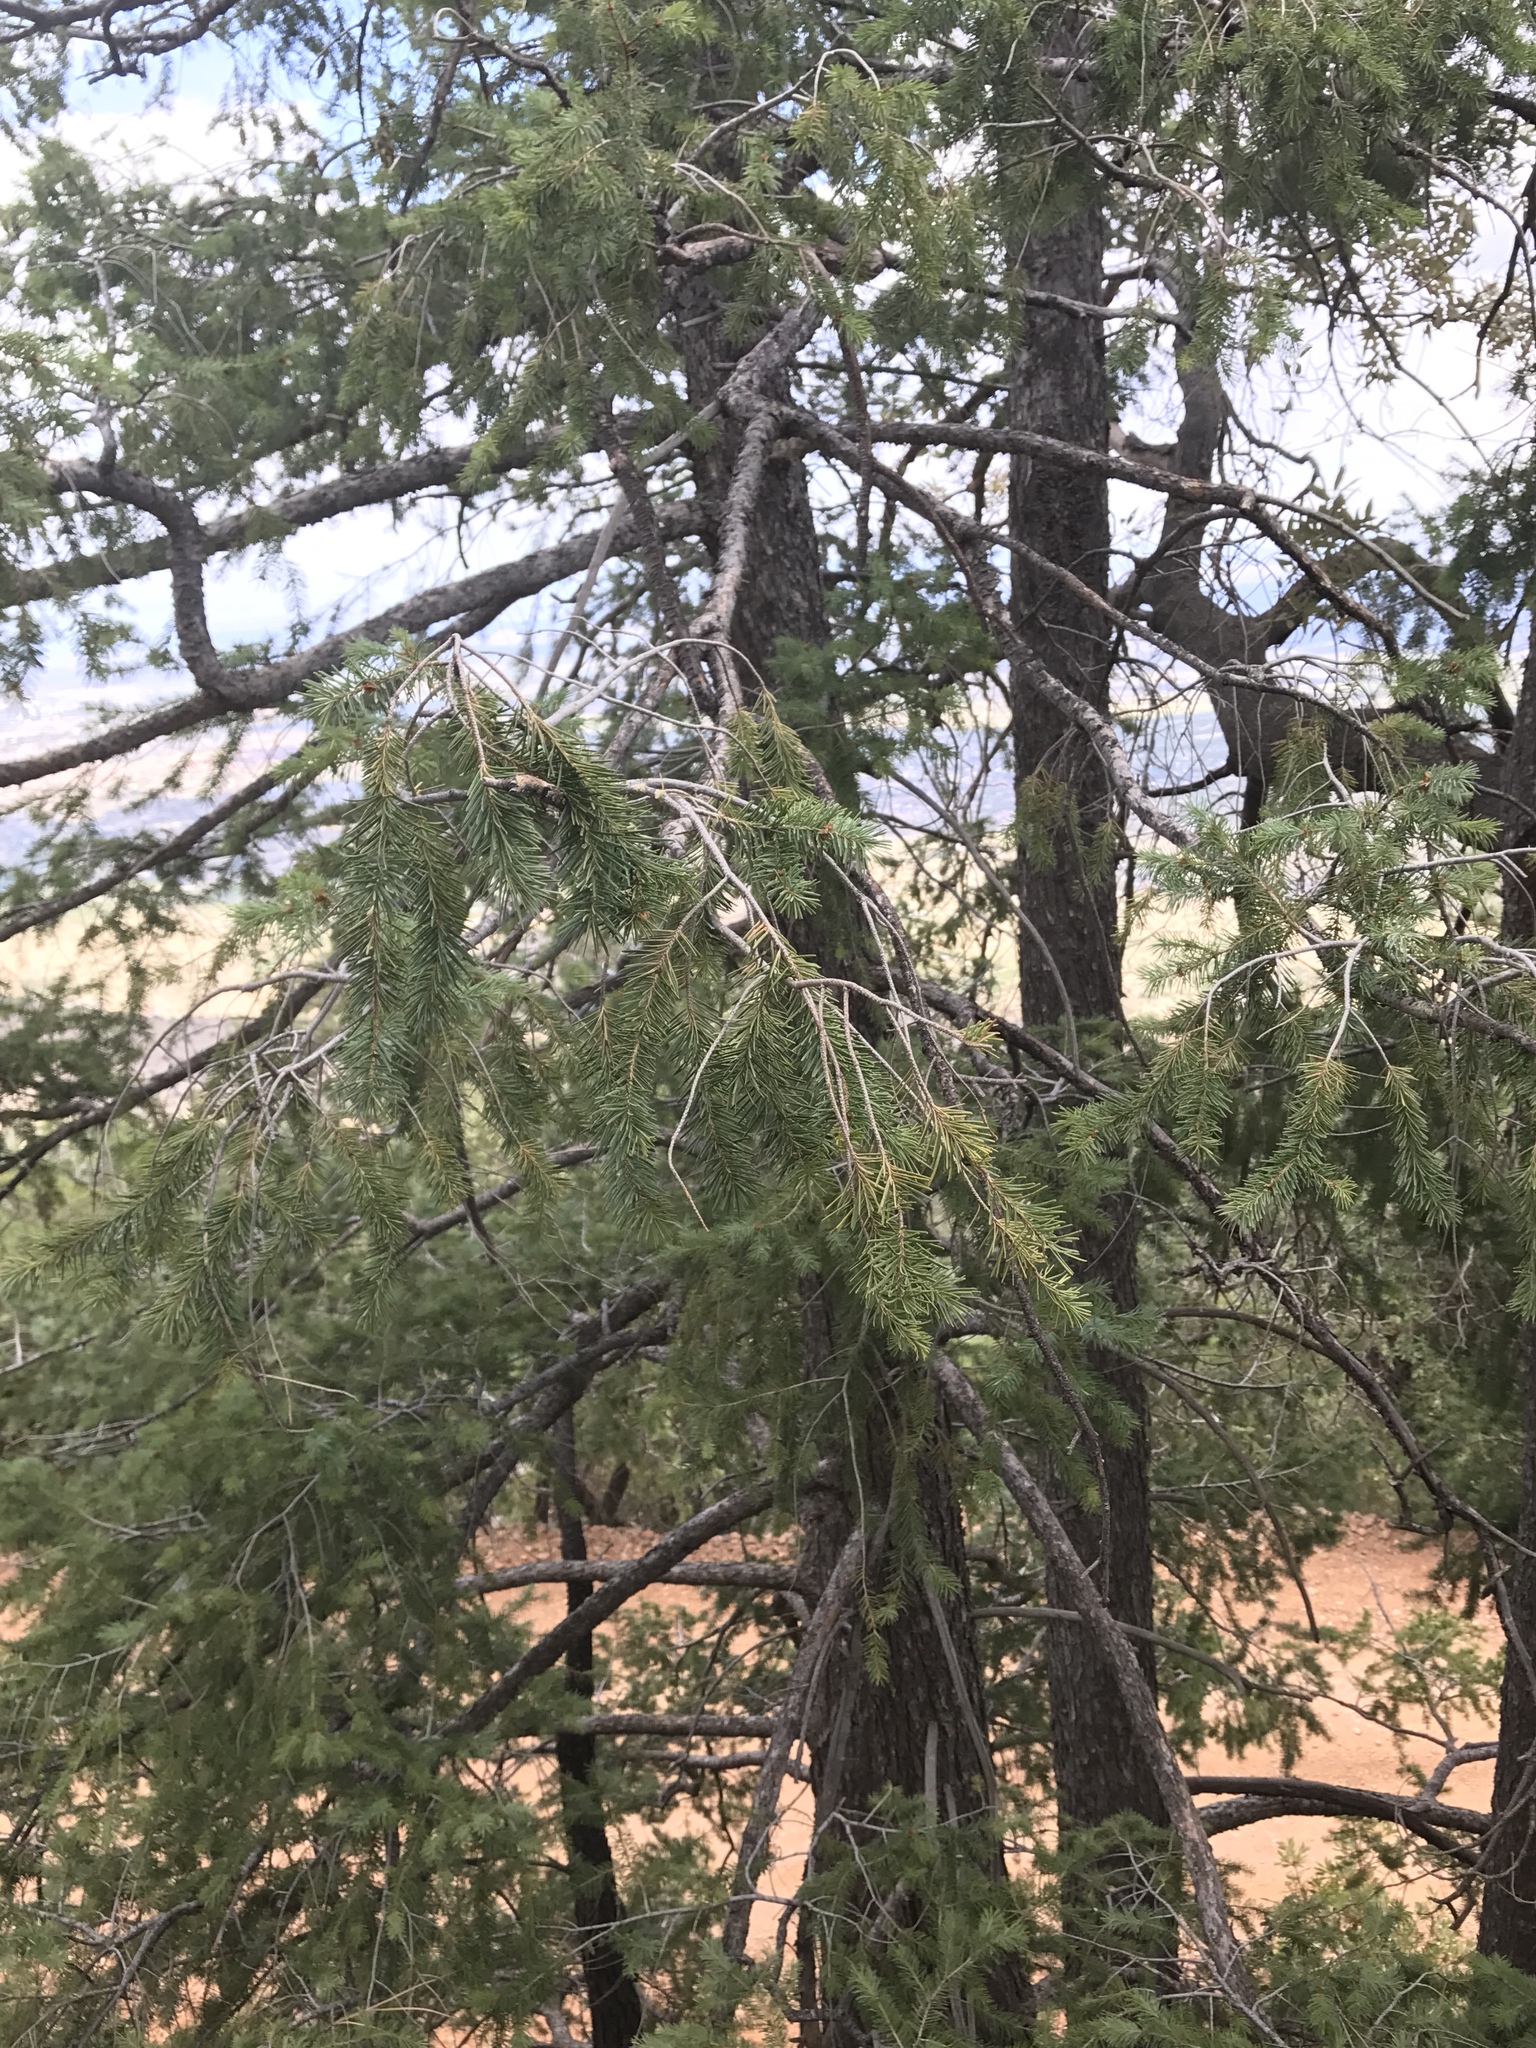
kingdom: Plantae
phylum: Tracheophyta
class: Pinopsida
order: Pinales
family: Pinaceae
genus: Pseudotsuga
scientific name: Pseudotsuga menziesii
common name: Douglas fir
